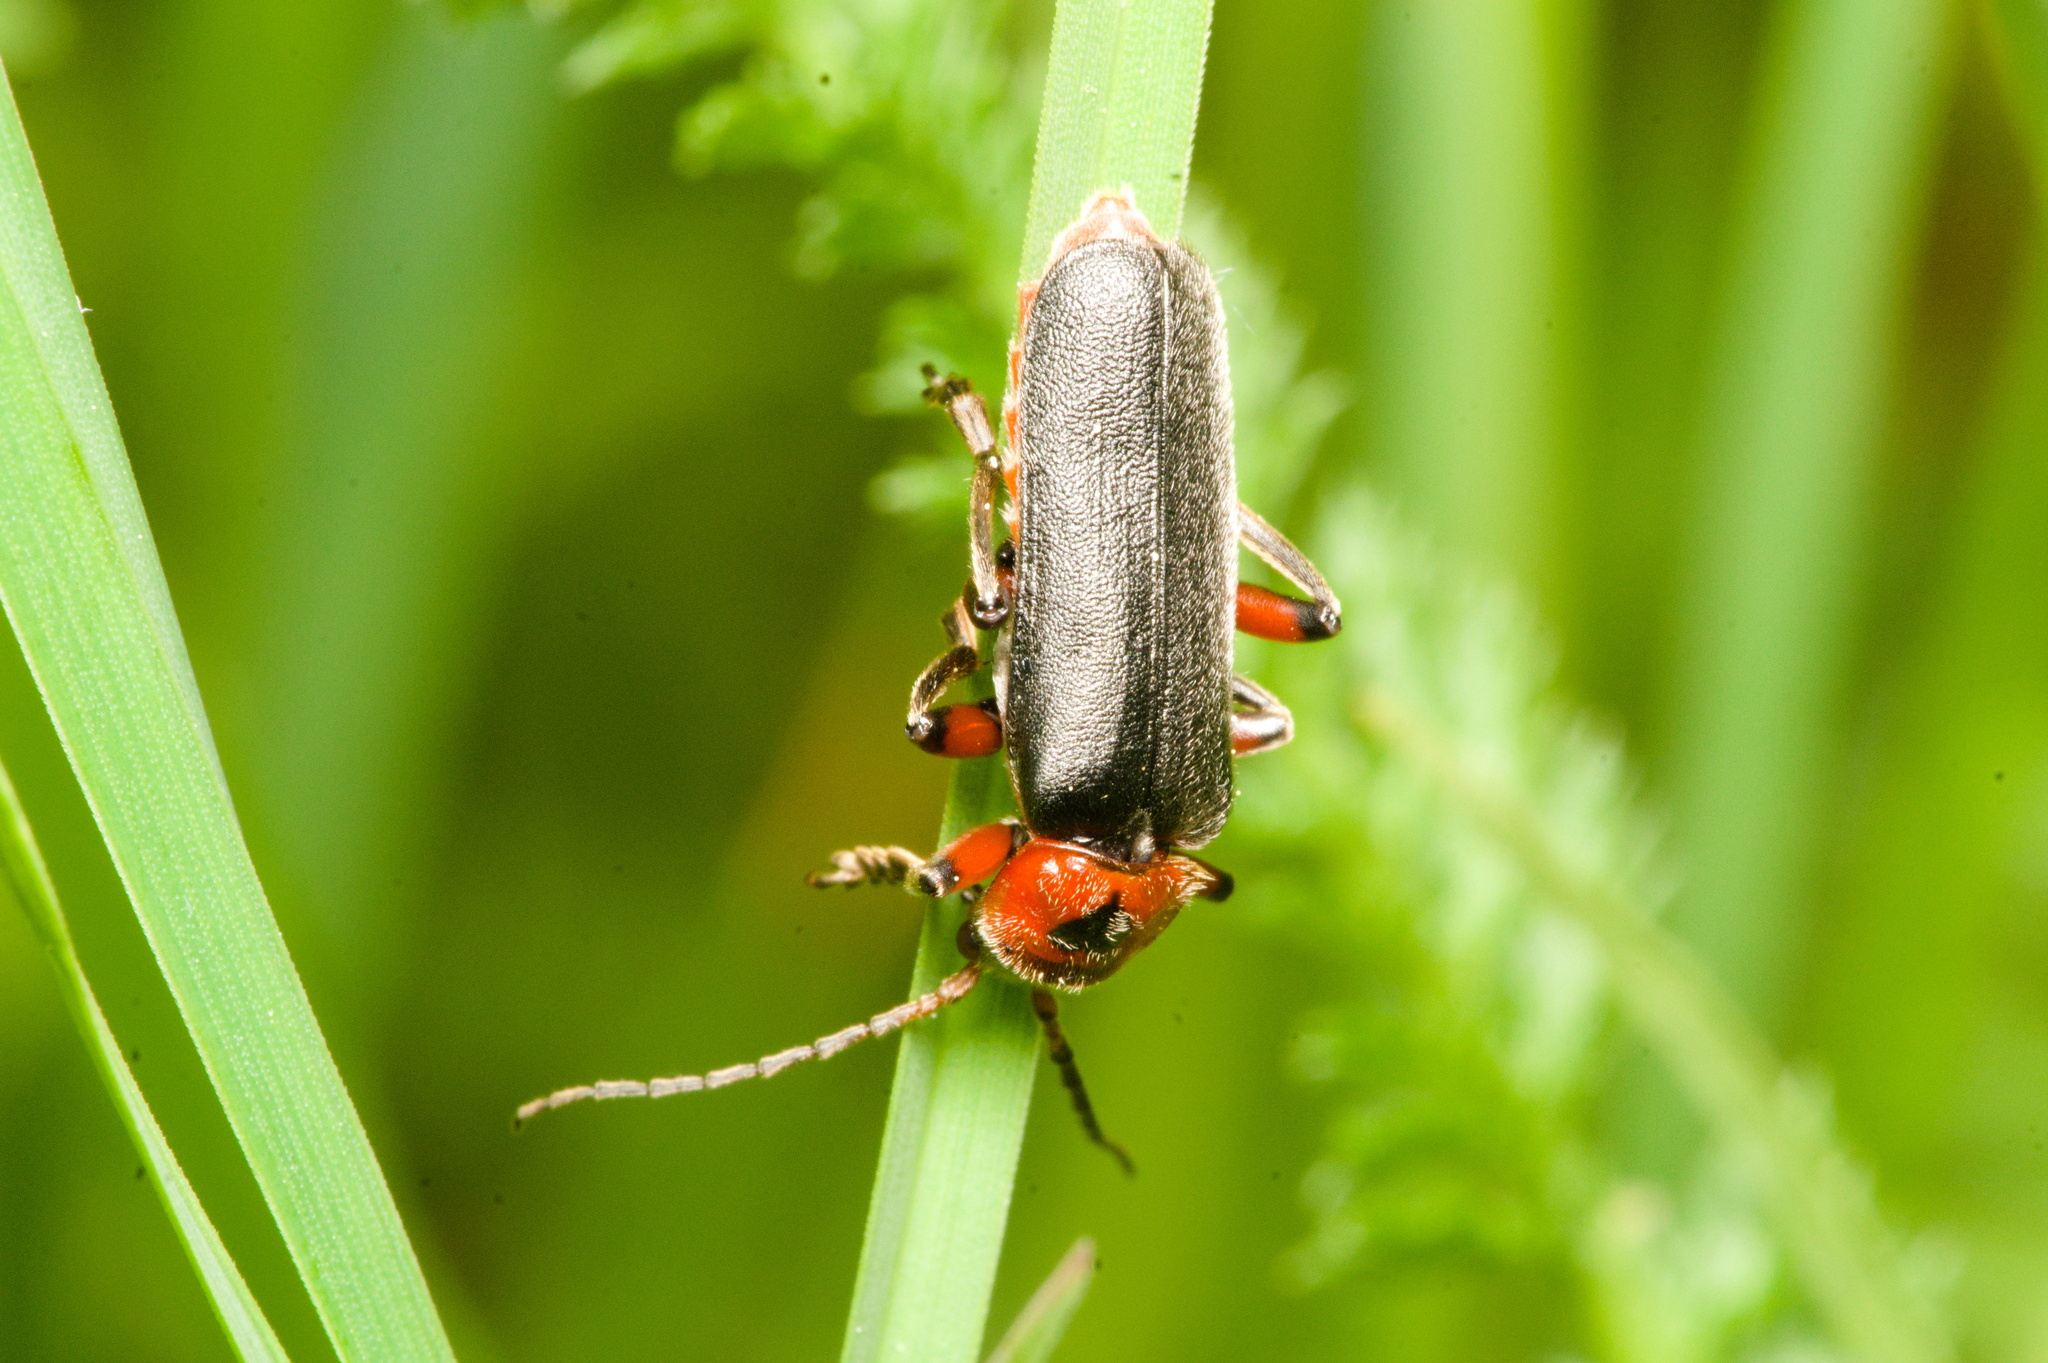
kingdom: Animalia
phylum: Arthropoda
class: Insecta
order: Coleoptera
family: Cantharidae
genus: Cantharis
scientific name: Cantharis rustica
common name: Soldier beetle
